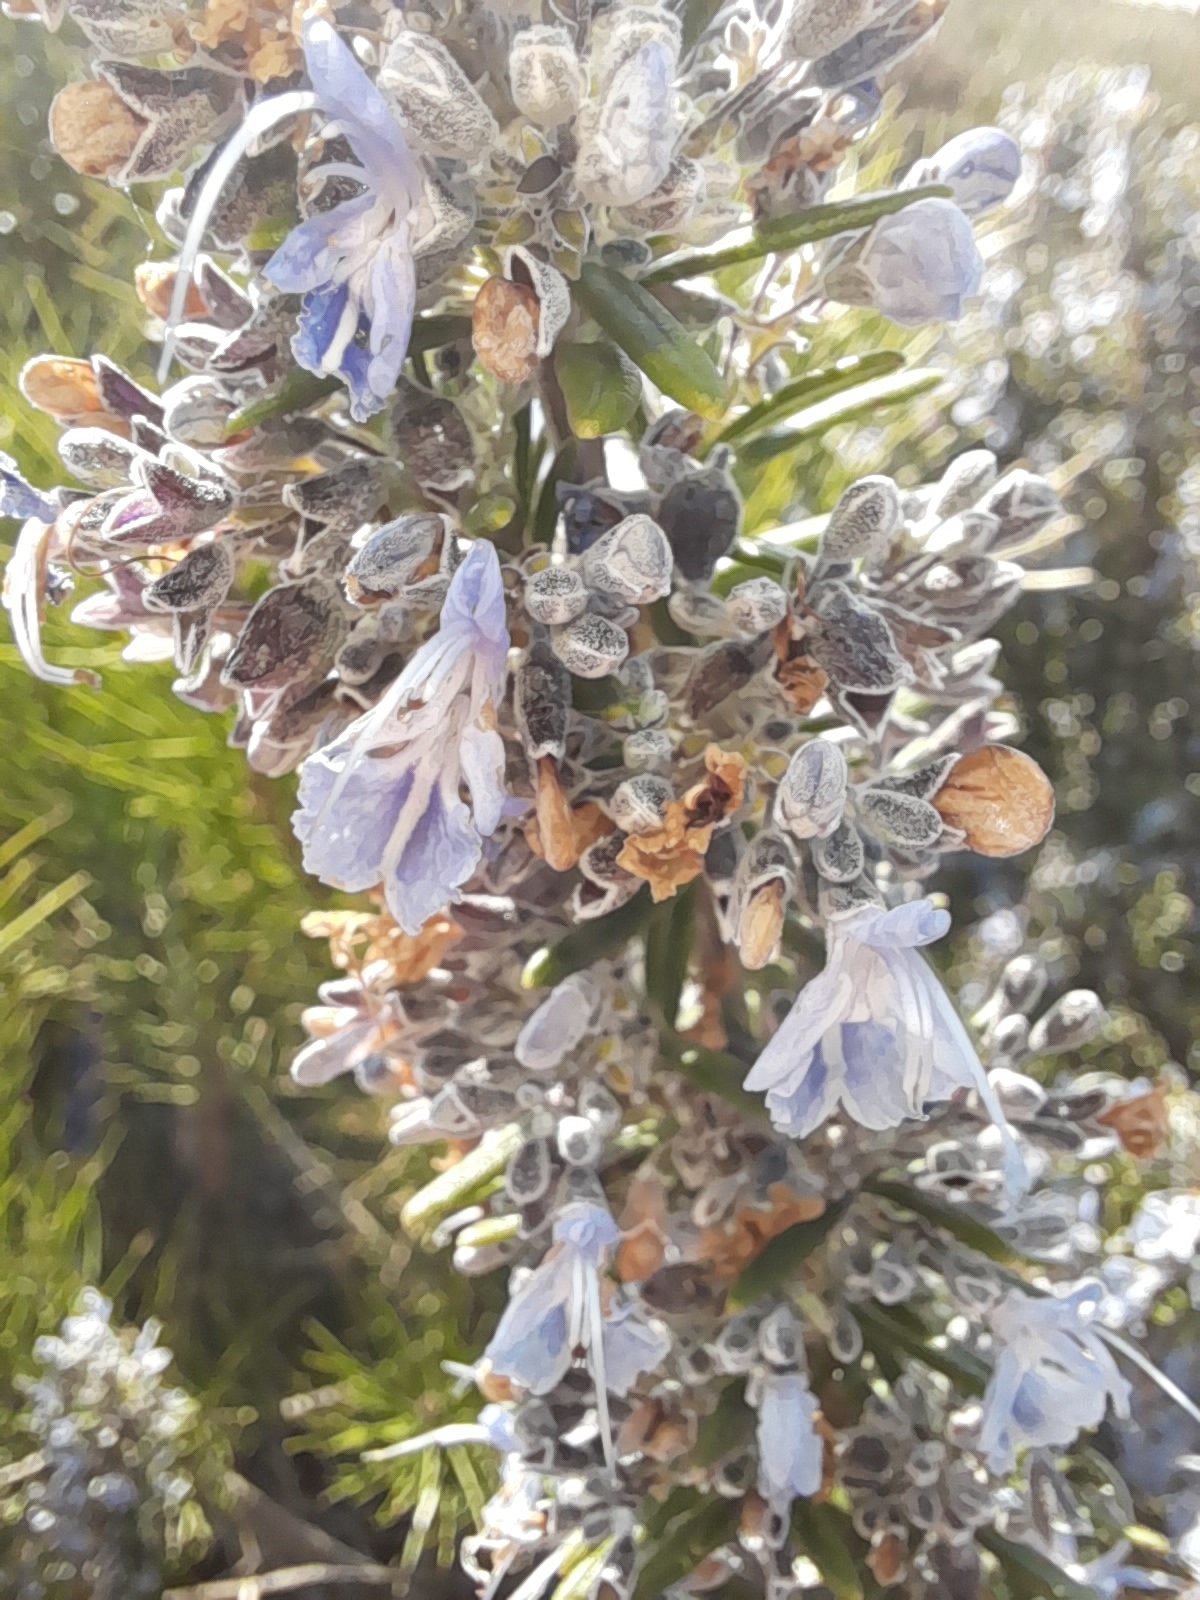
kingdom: Plantae
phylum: Tracheophyta
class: Magnoliopsida
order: Lamiales
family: Lamiaceae
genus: Salvia
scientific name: Salvia rosmarinus
